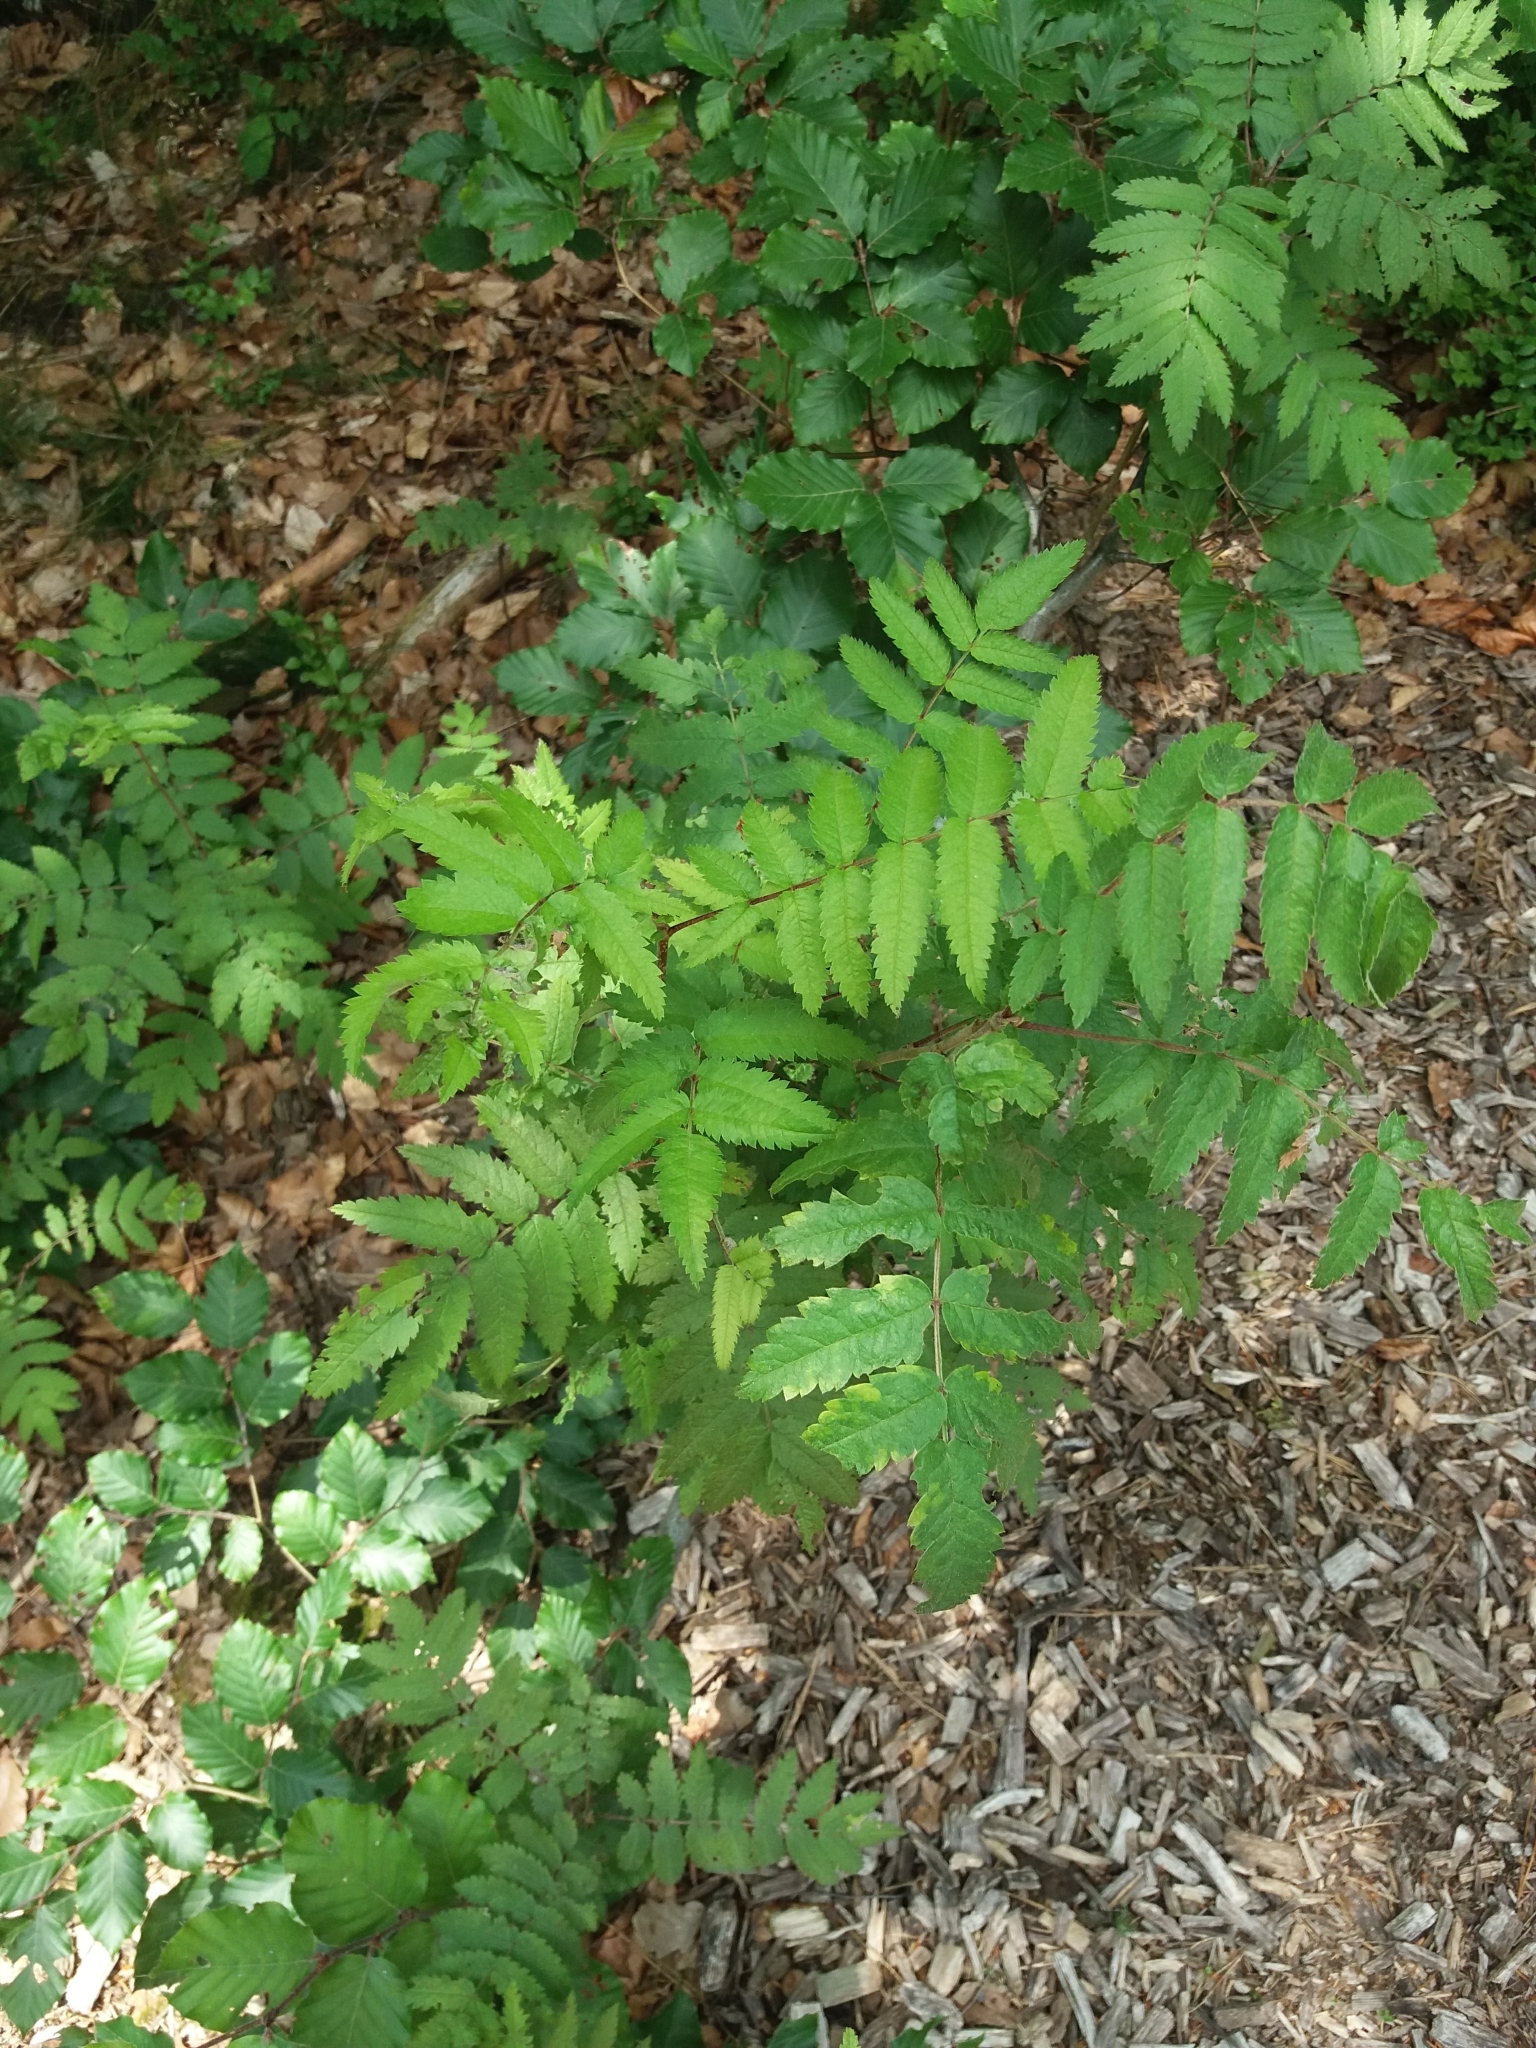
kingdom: Plantae
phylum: Tracheophyta
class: Magnoliopsida
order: Rosales
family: Rosaceae
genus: Sorbus
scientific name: Sorbus aucuparia
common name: Rowan
